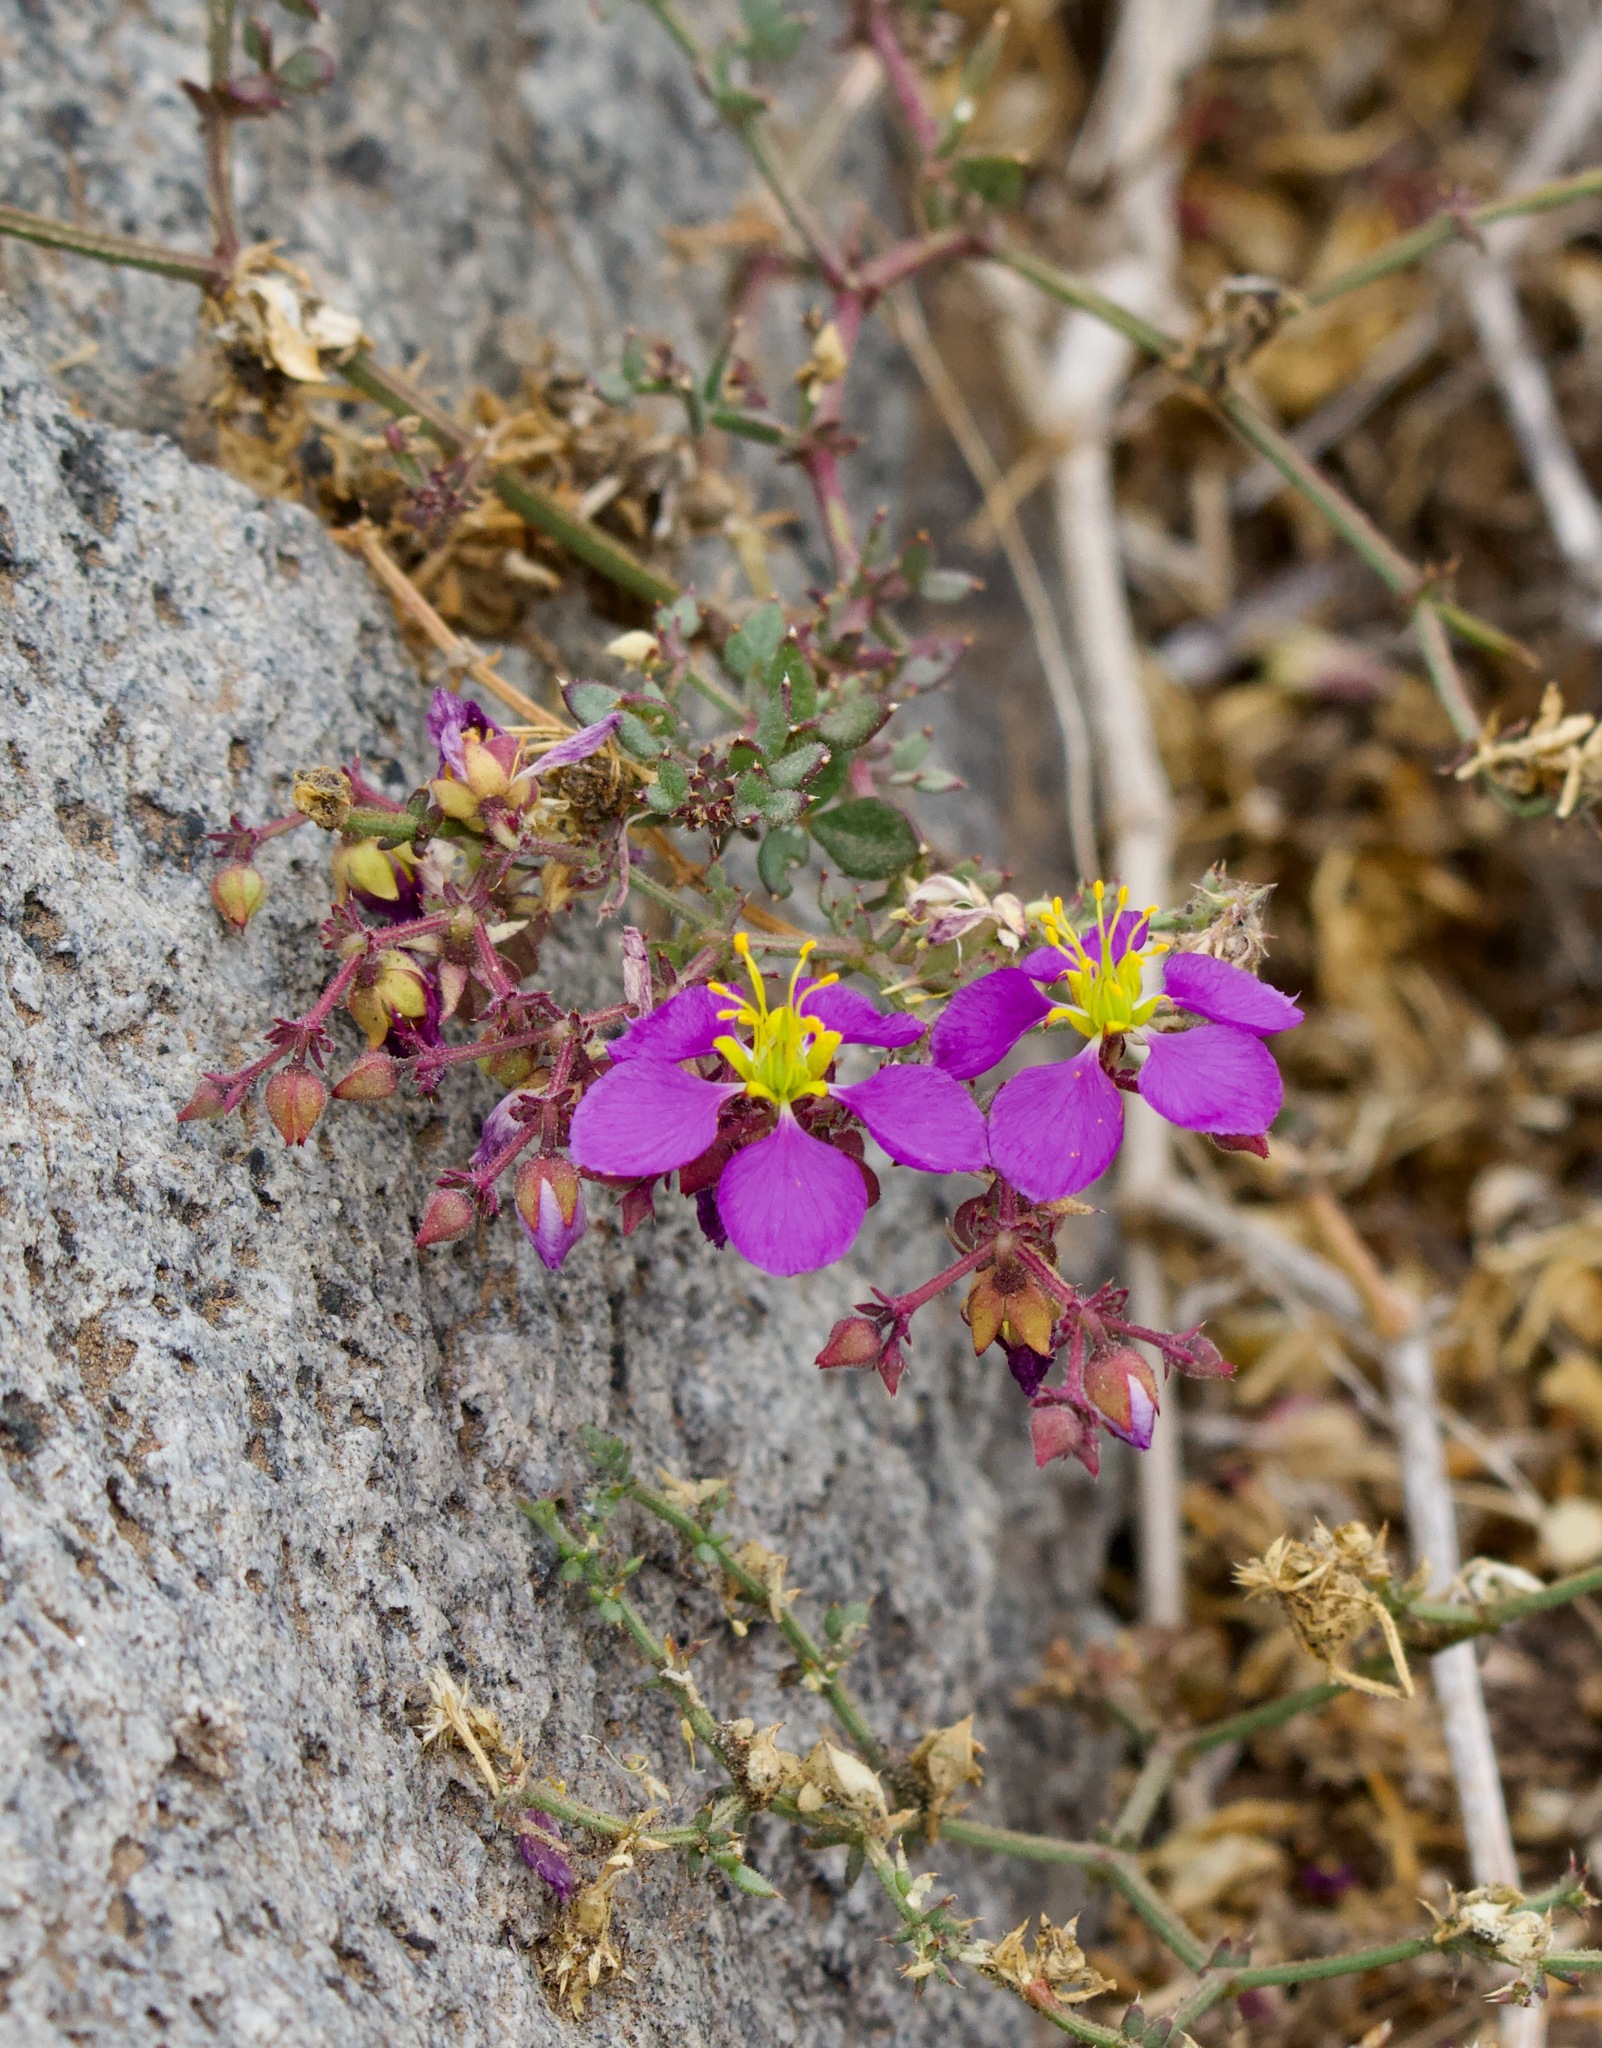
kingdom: Plantae
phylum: Tracheophyta
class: Magnoliopsida
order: Zygophyllales
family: Zygophyllaceae
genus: Fagonia
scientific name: Fagonia chilensis
